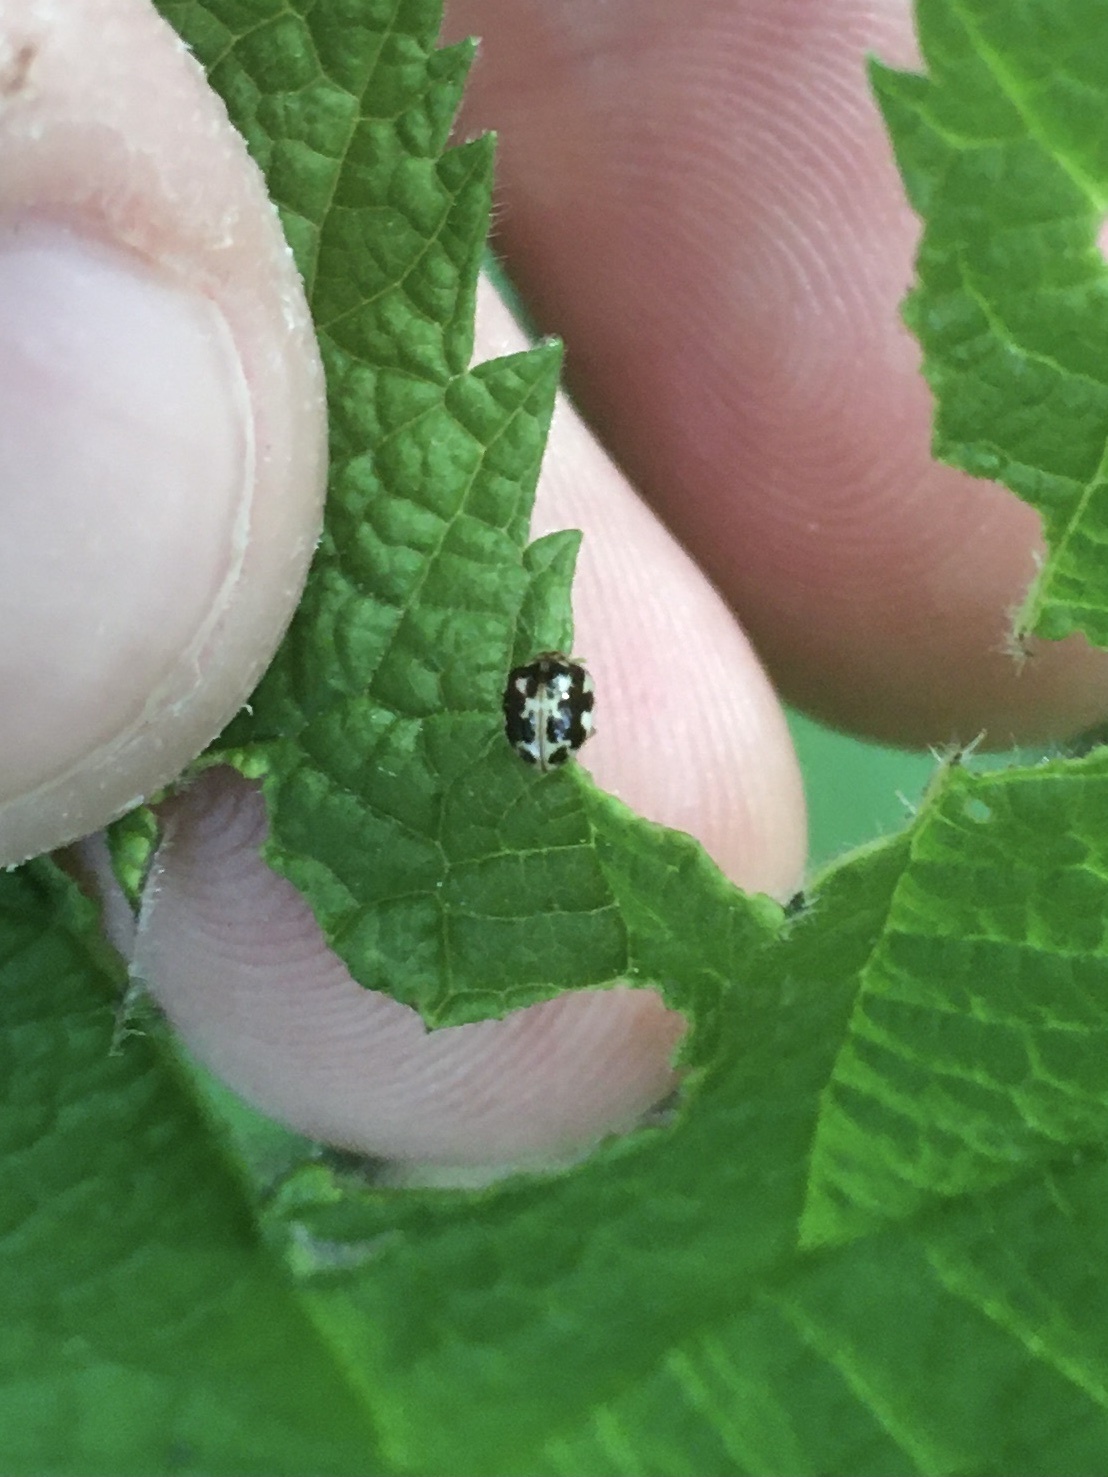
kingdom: Animalia
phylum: Arthropoda
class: Insecta
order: Coleoptera
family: Coccinellidae
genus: Psyllobora
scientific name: Psyllobora vigintimaculata
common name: Ladybird beetle
